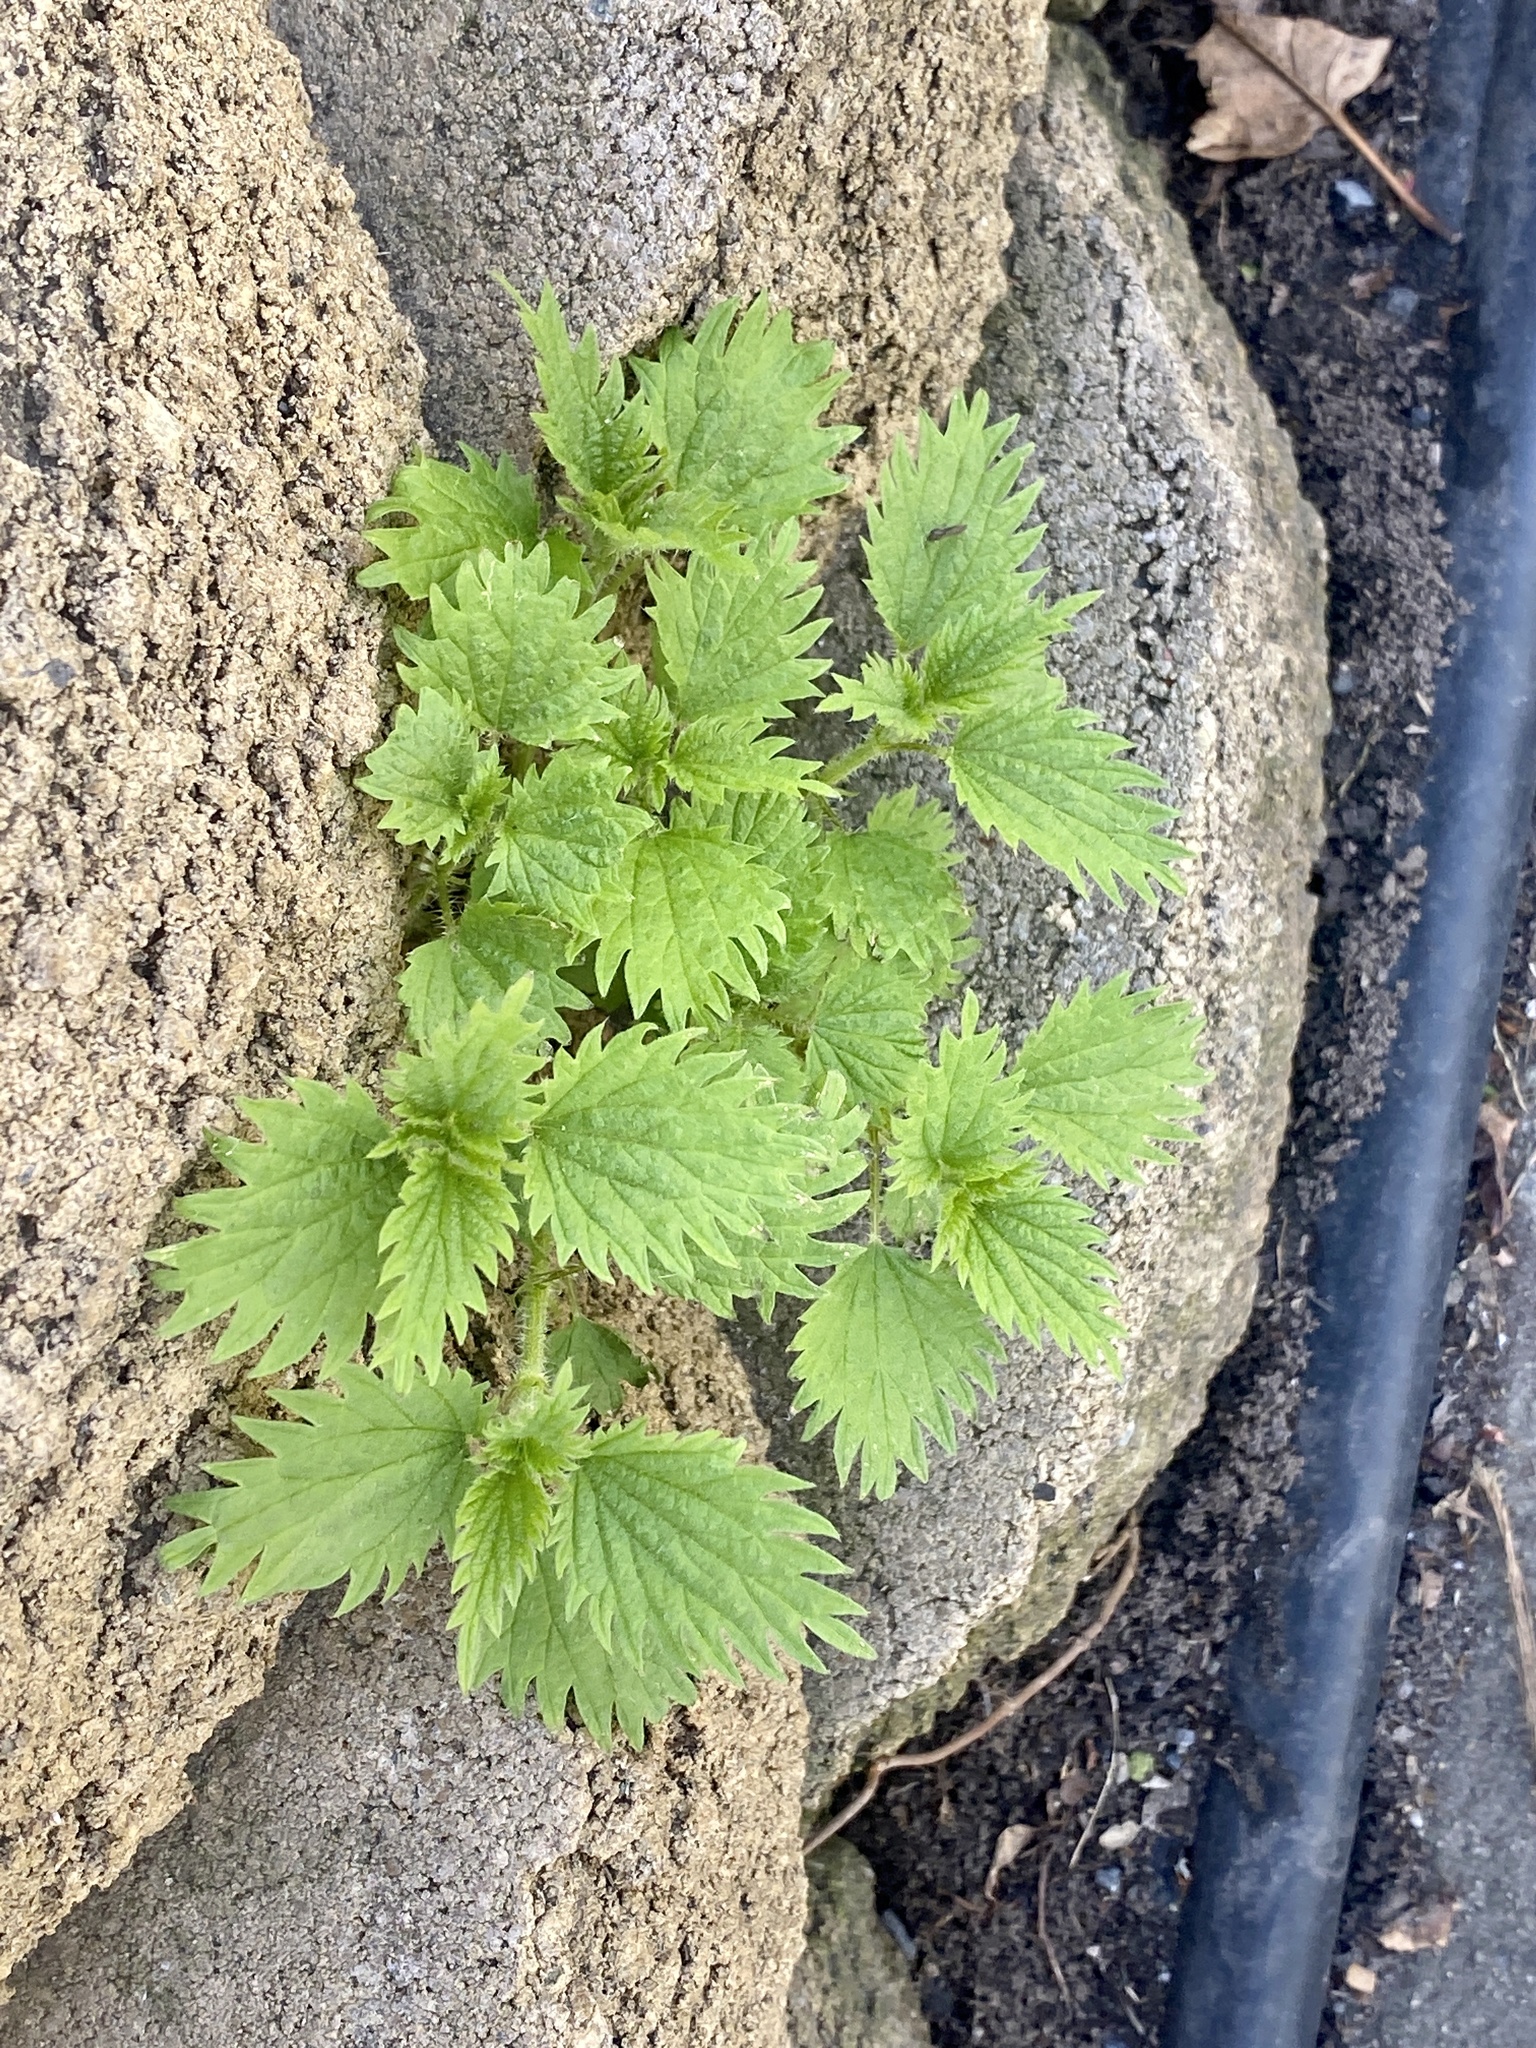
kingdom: Plantae
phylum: Tracheophyta
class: Magnoliopsida
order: Rosales
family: Urticaceae
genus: Urtica
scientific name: Urtica dioica
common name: Common nettle
